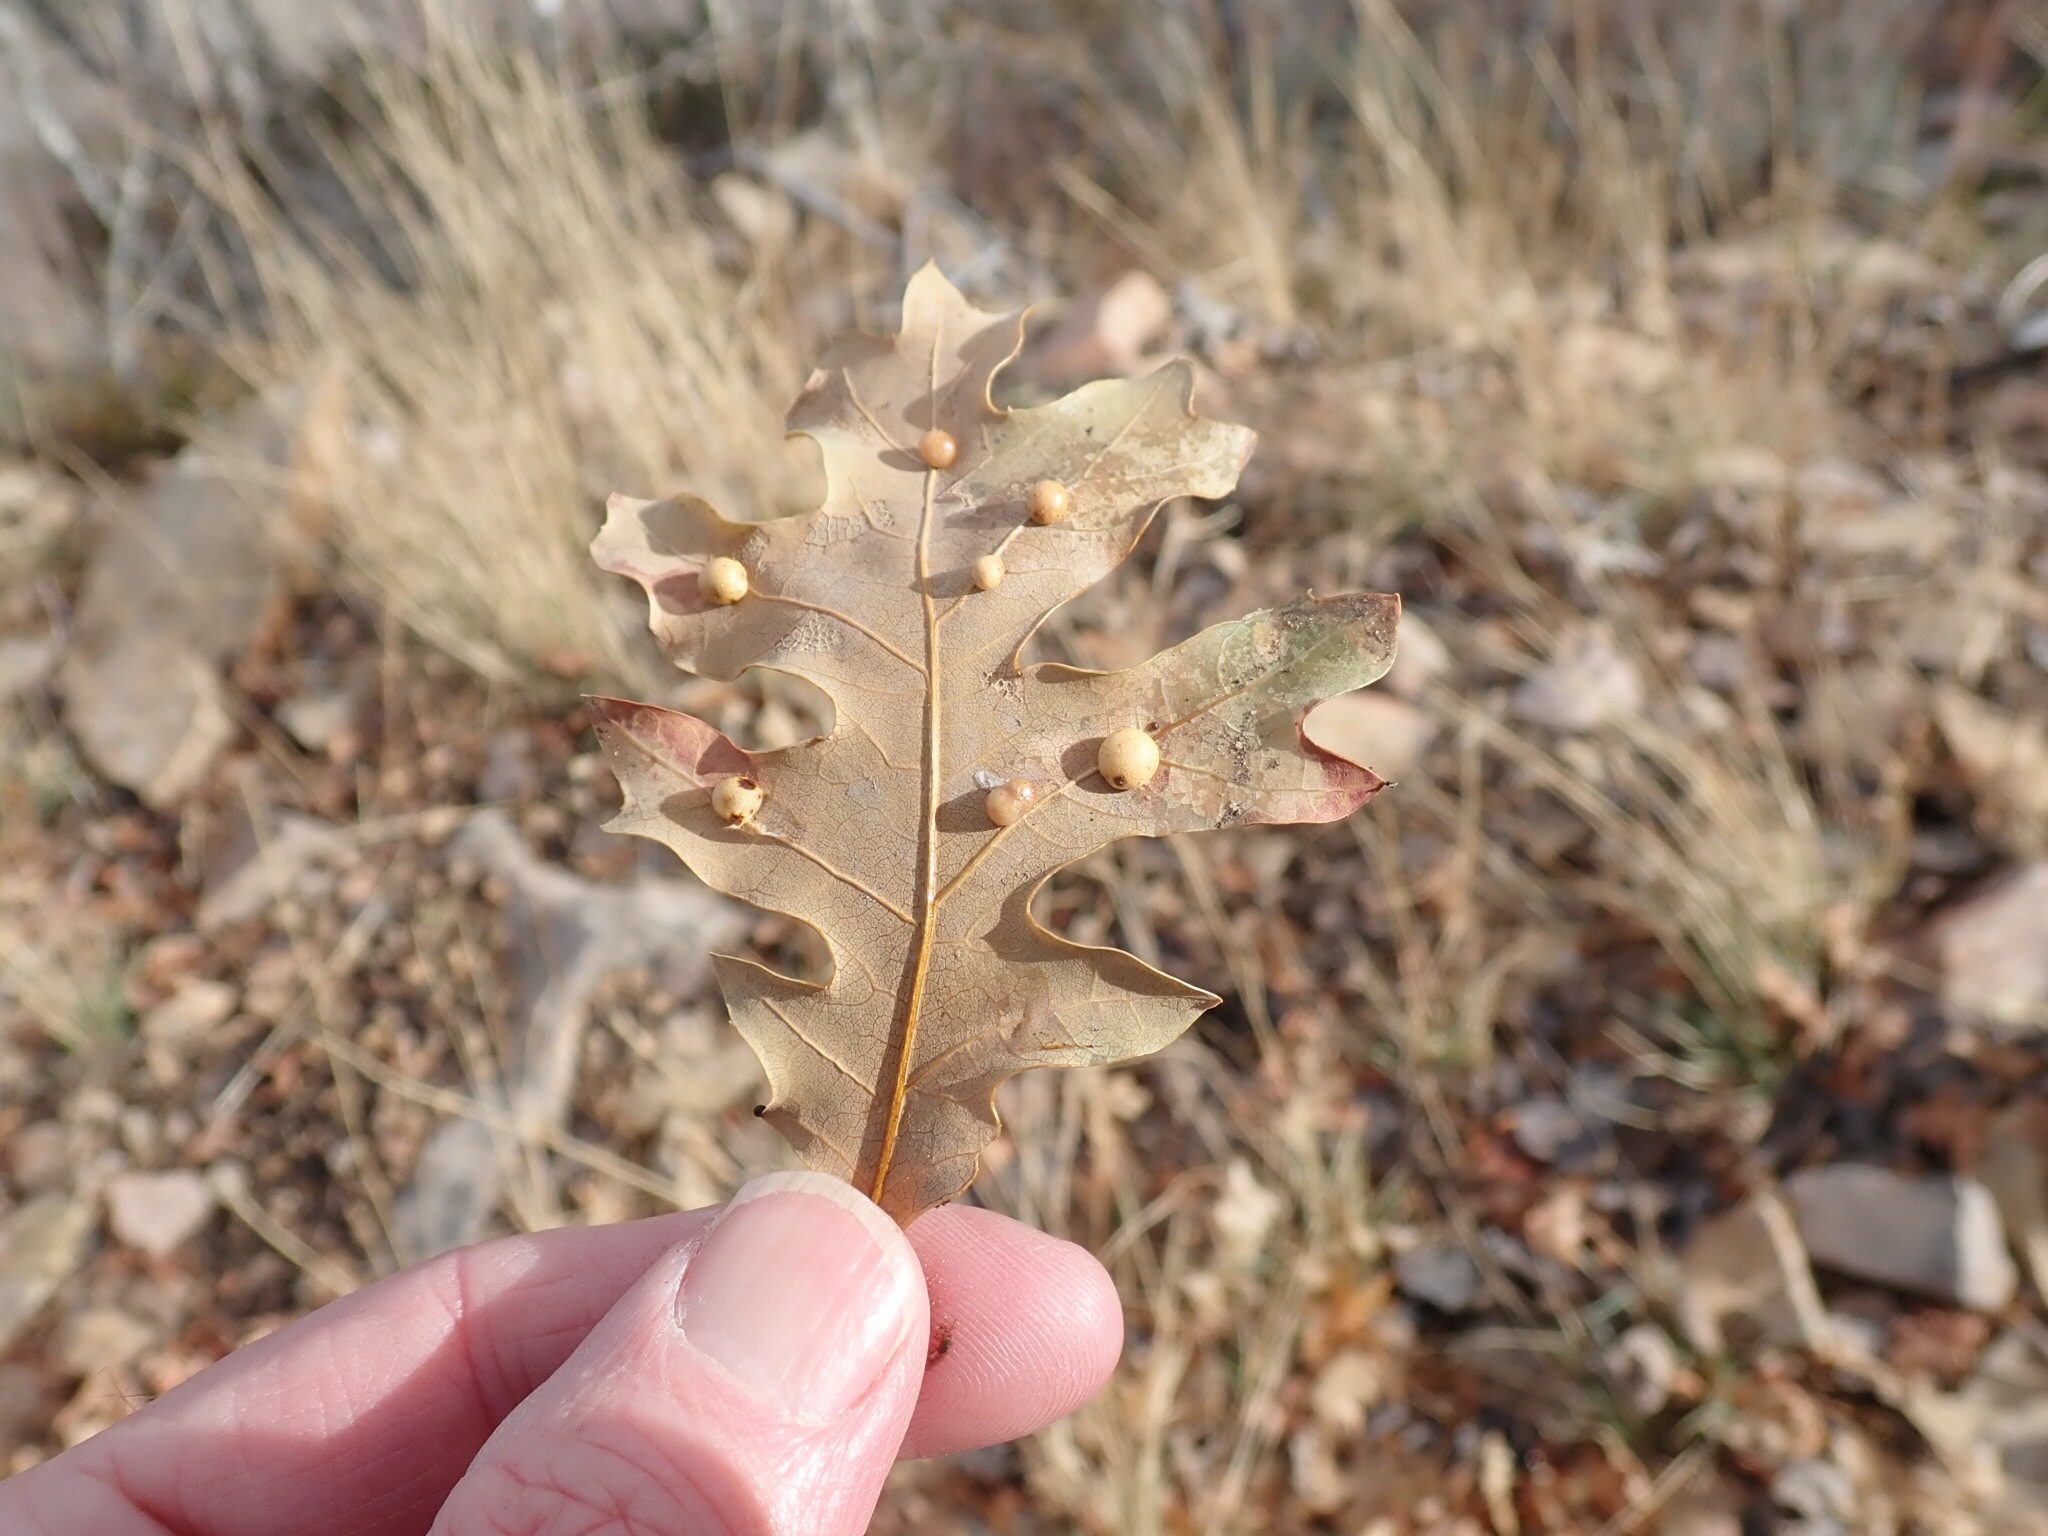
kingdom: Animalia
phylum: Arthropoda
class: Insecta
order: Hymenoptera
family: Cynipidae
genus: Trigonaspis
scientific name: Trigonaspis
